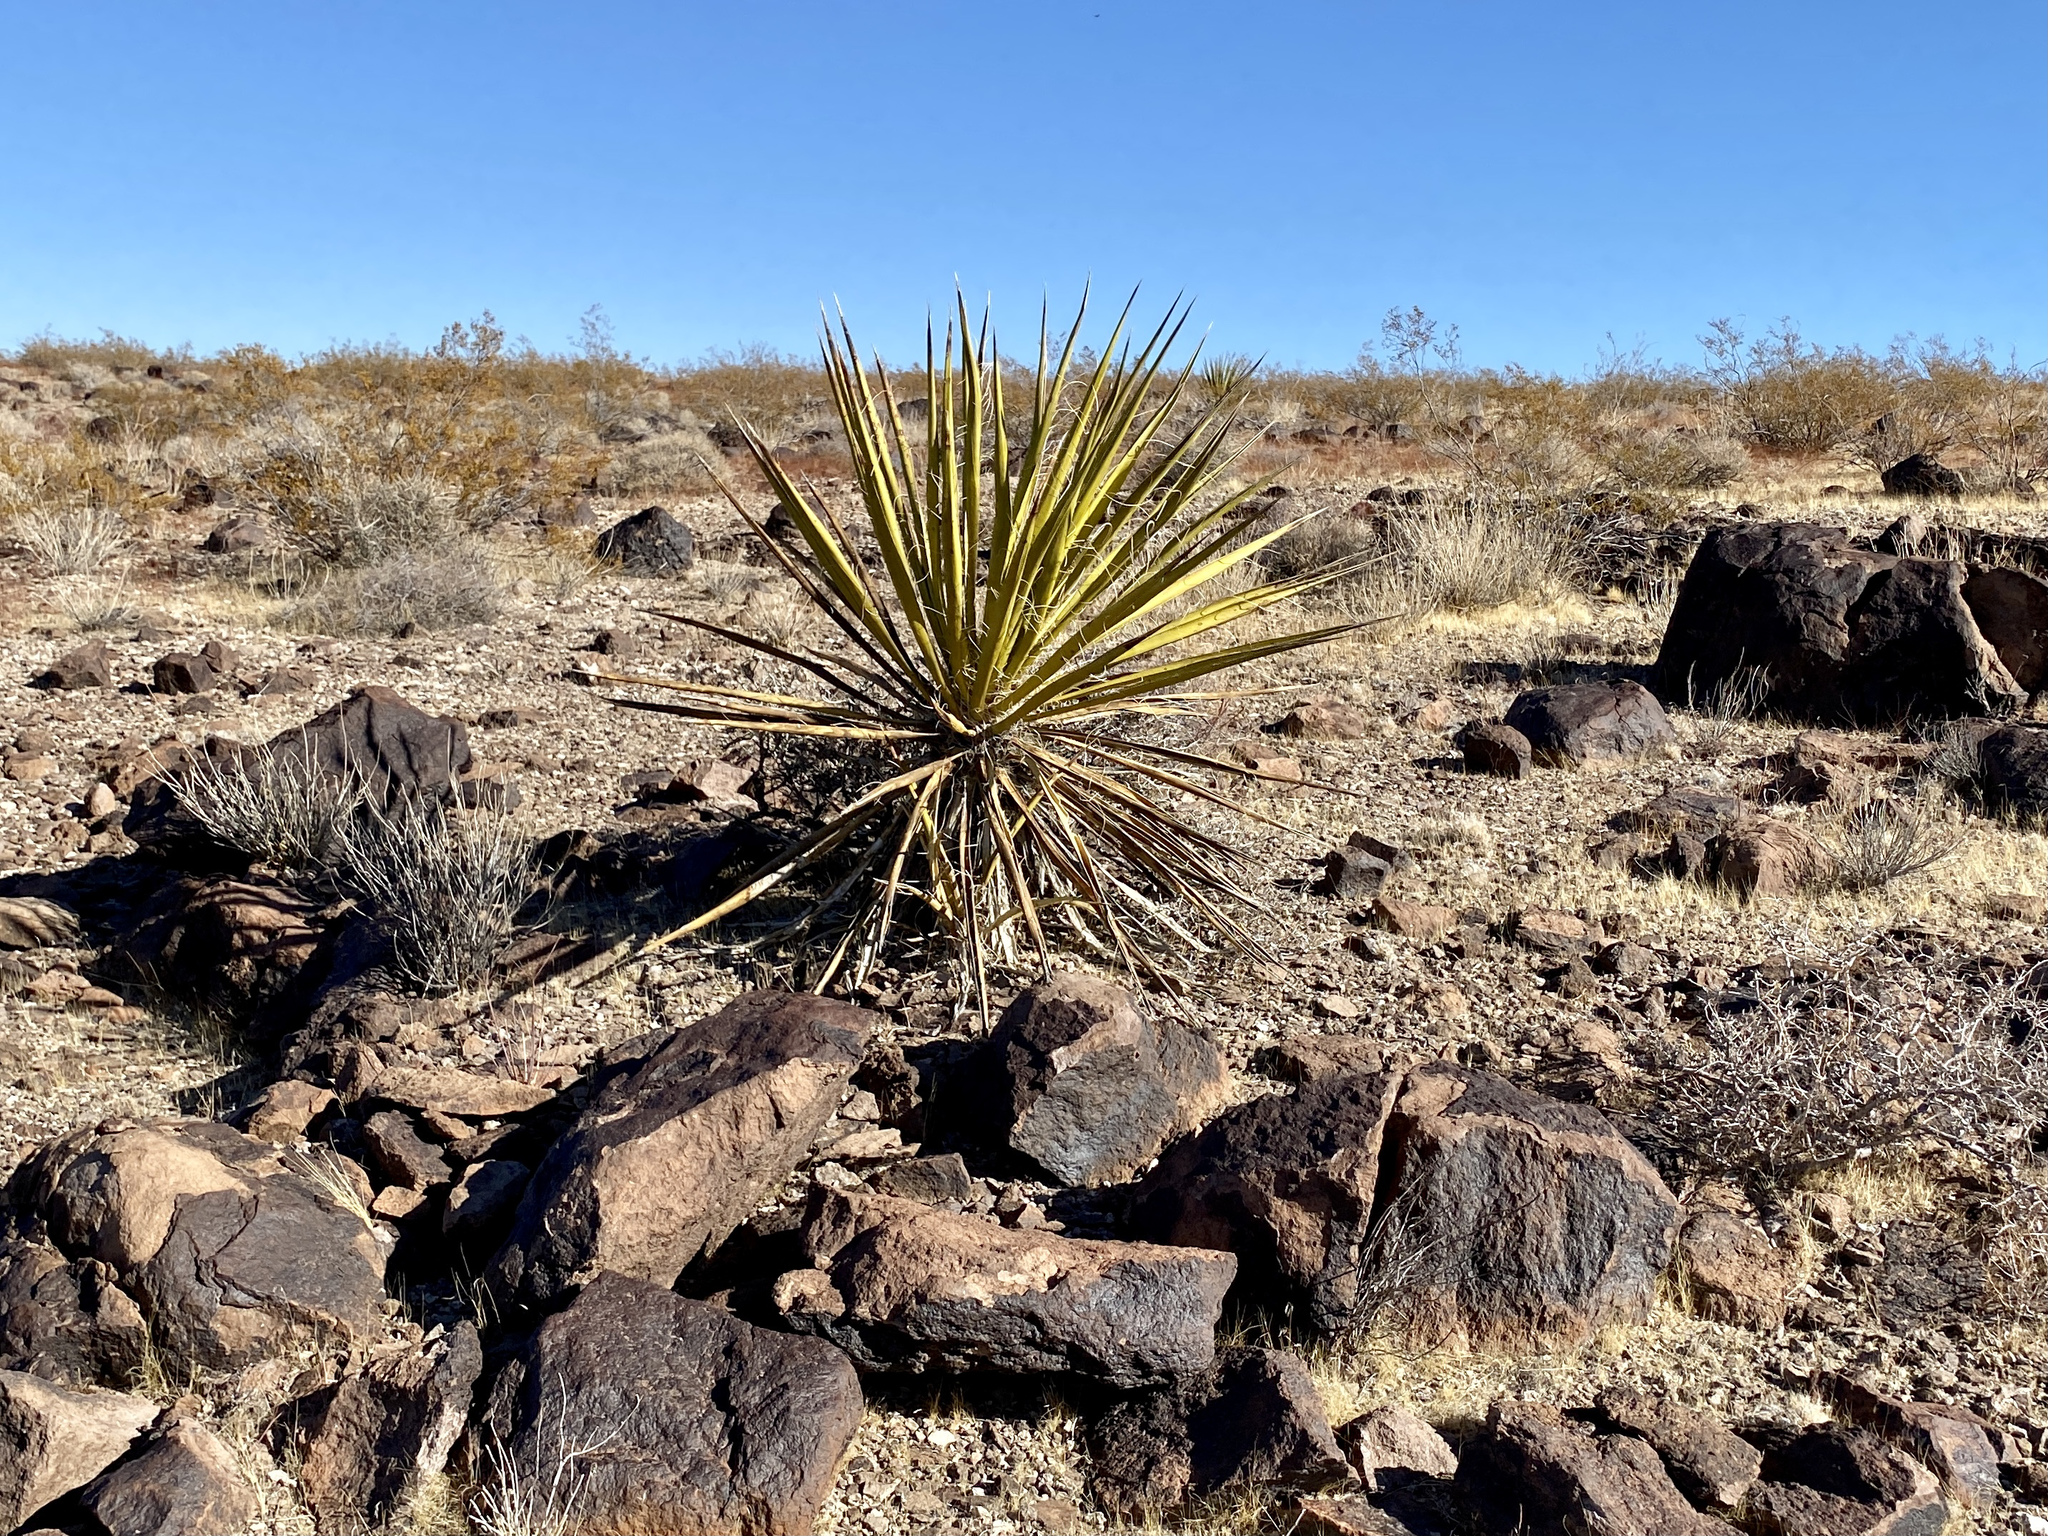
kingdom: Plantae
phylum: Tracheophyta
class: Liliopsida
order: Asparagales
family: Asparagaceae
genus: Yucca
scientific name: Yucca schidigera
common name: Mojave yucca
